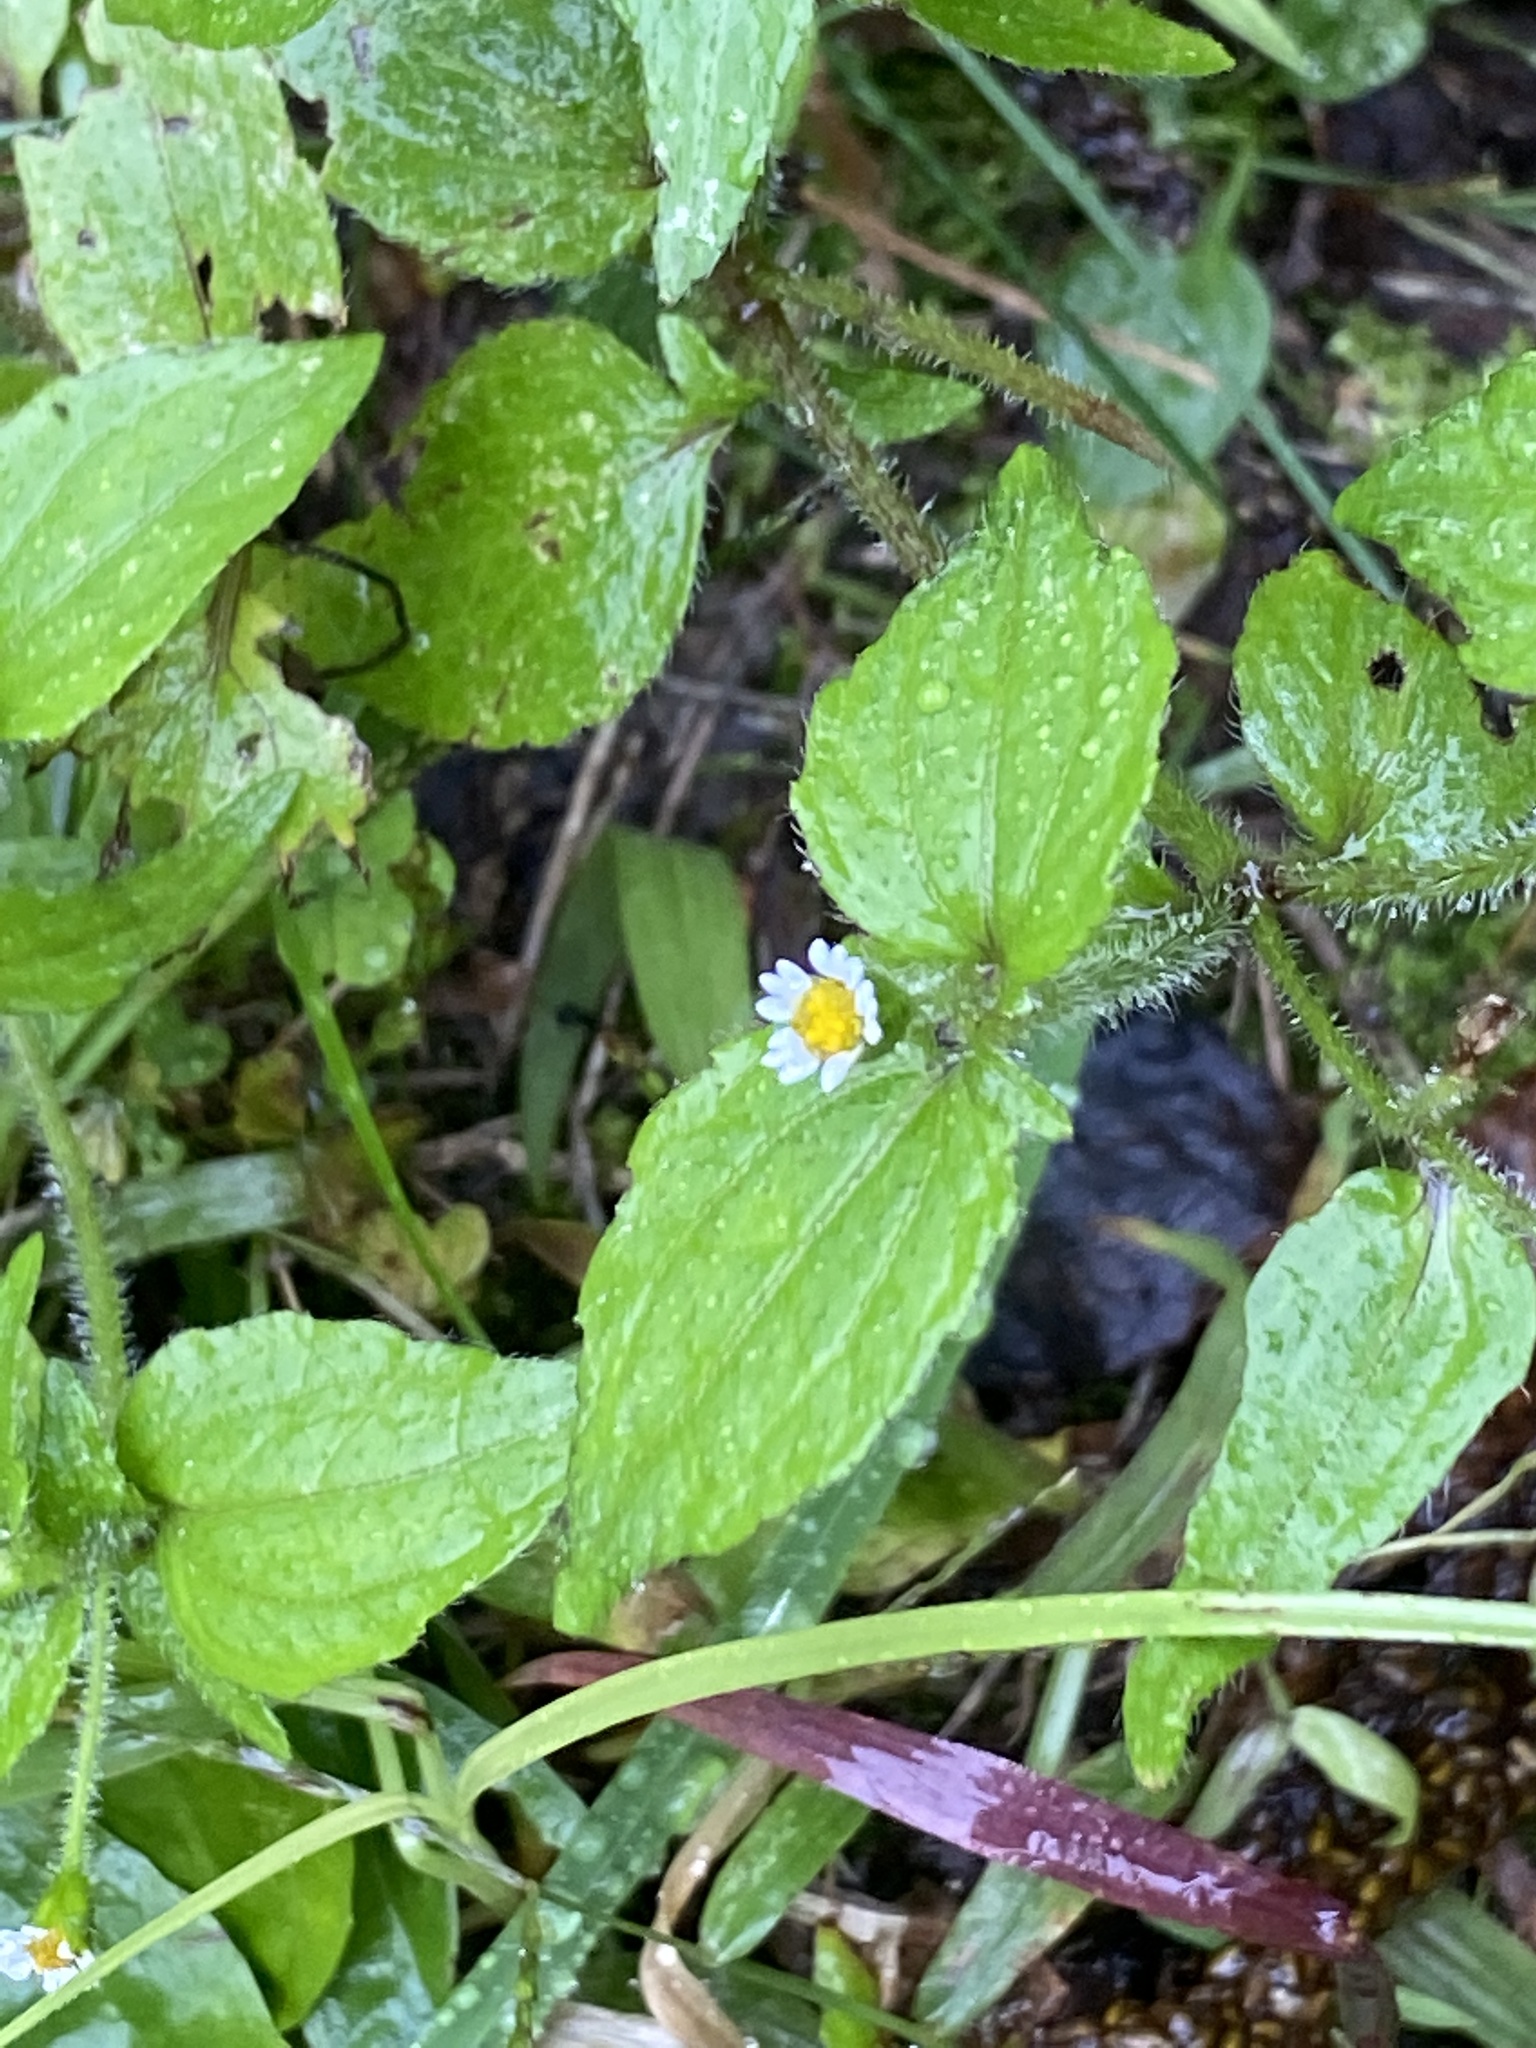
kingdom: Plantae
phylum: Tracheophyta
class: Magnoliopsida
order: Asterales
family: Asteraceae
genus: Galinsoga
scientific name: Galinsoga quadriradiata
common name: Shaggy soldier
